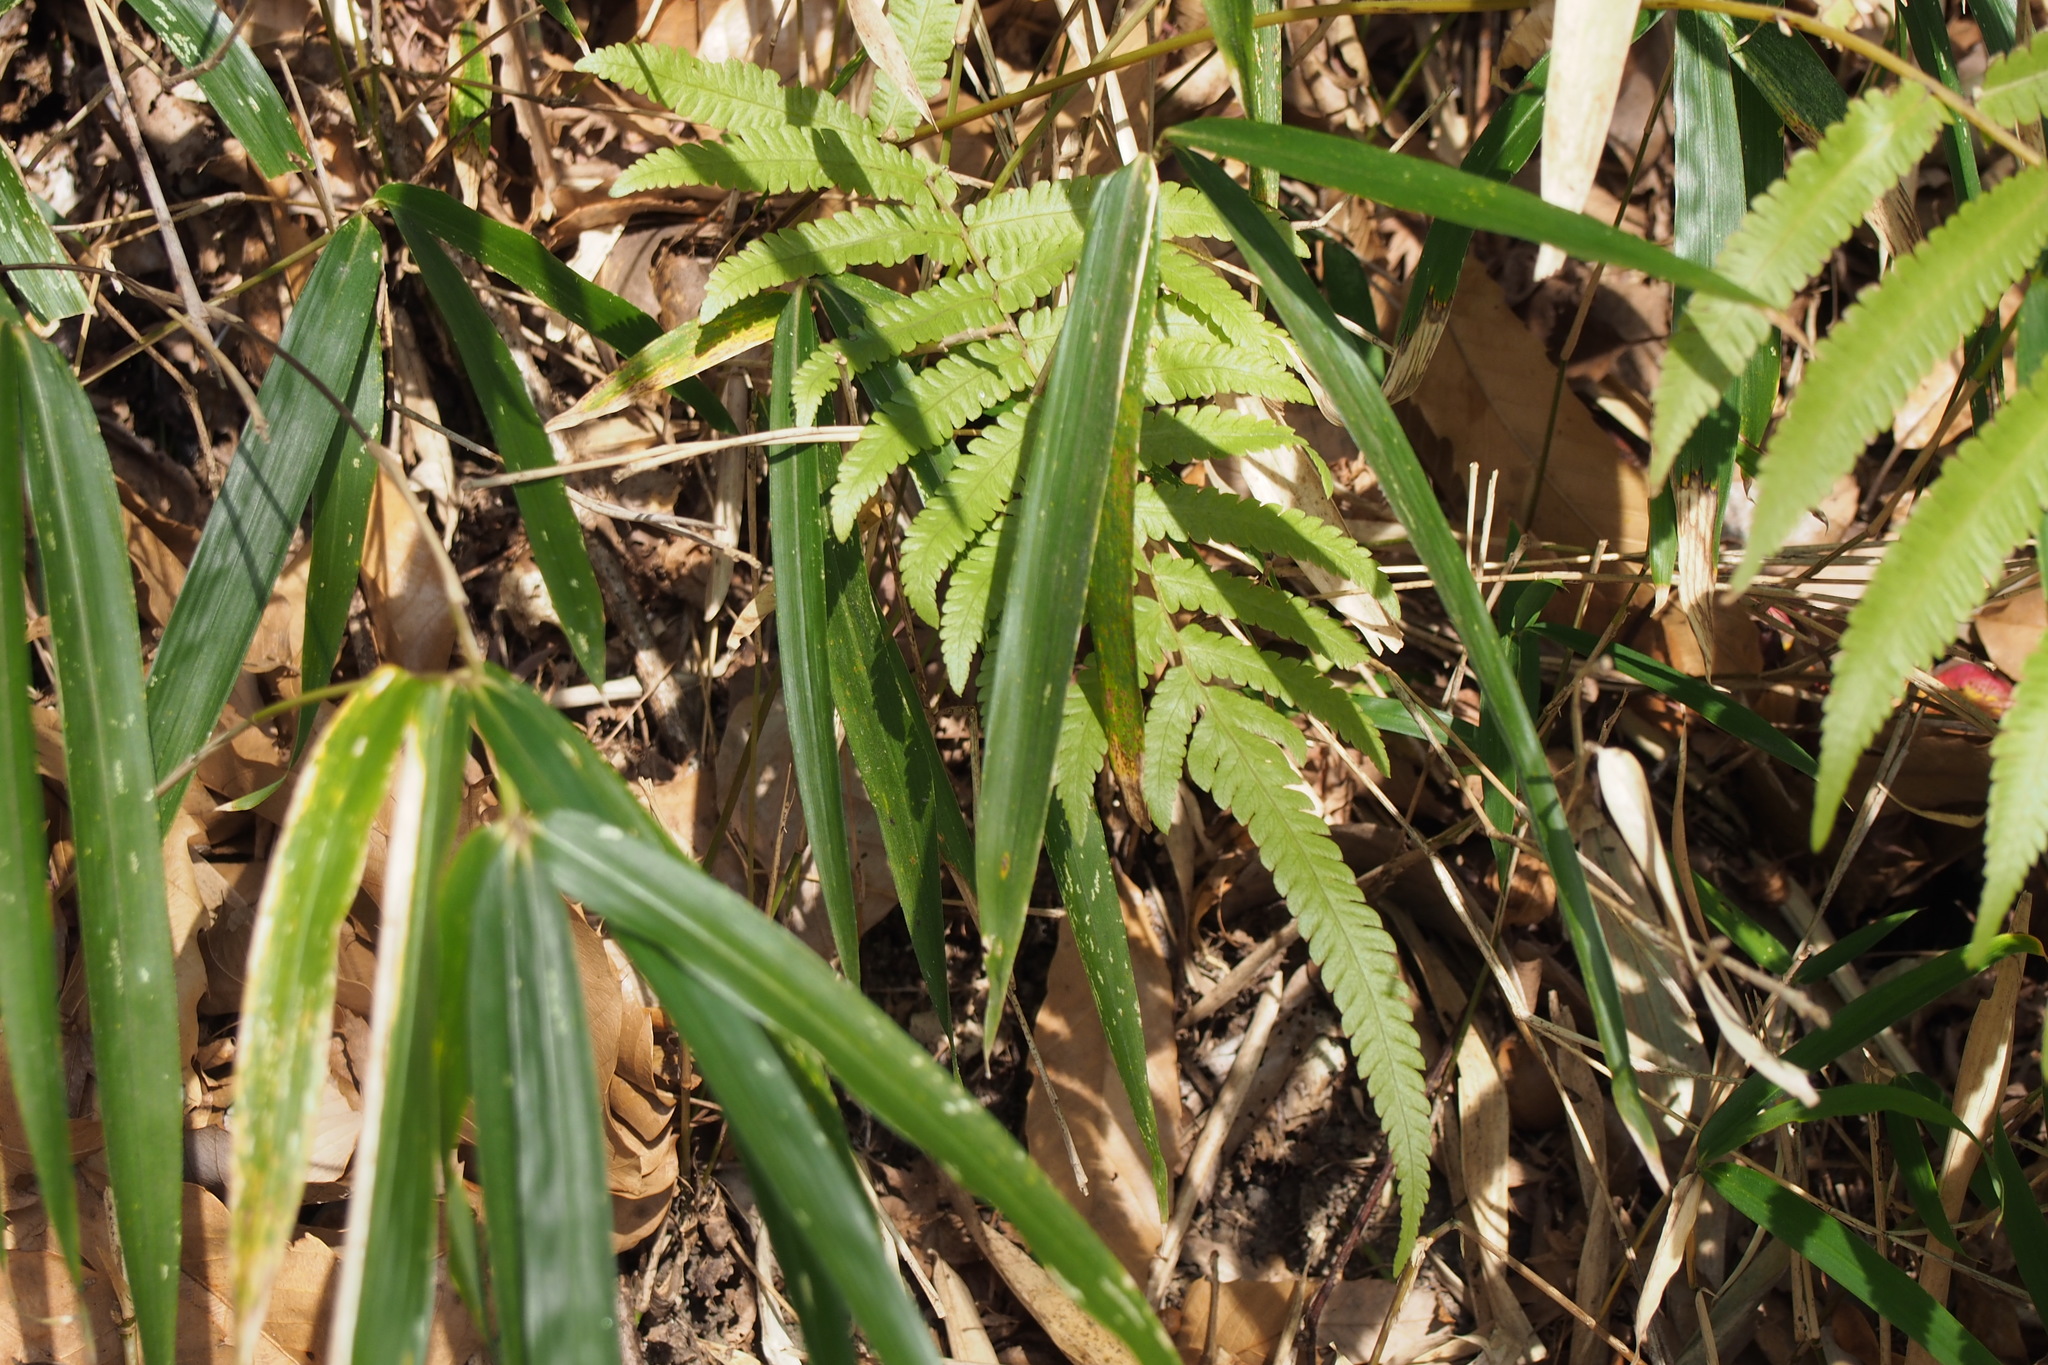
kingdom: Plantae
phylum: Tracheophyta
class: Polypodiopsida
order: Polypodiales
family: Thelypteridaceae
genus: Christella
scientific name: Christella acuminata
